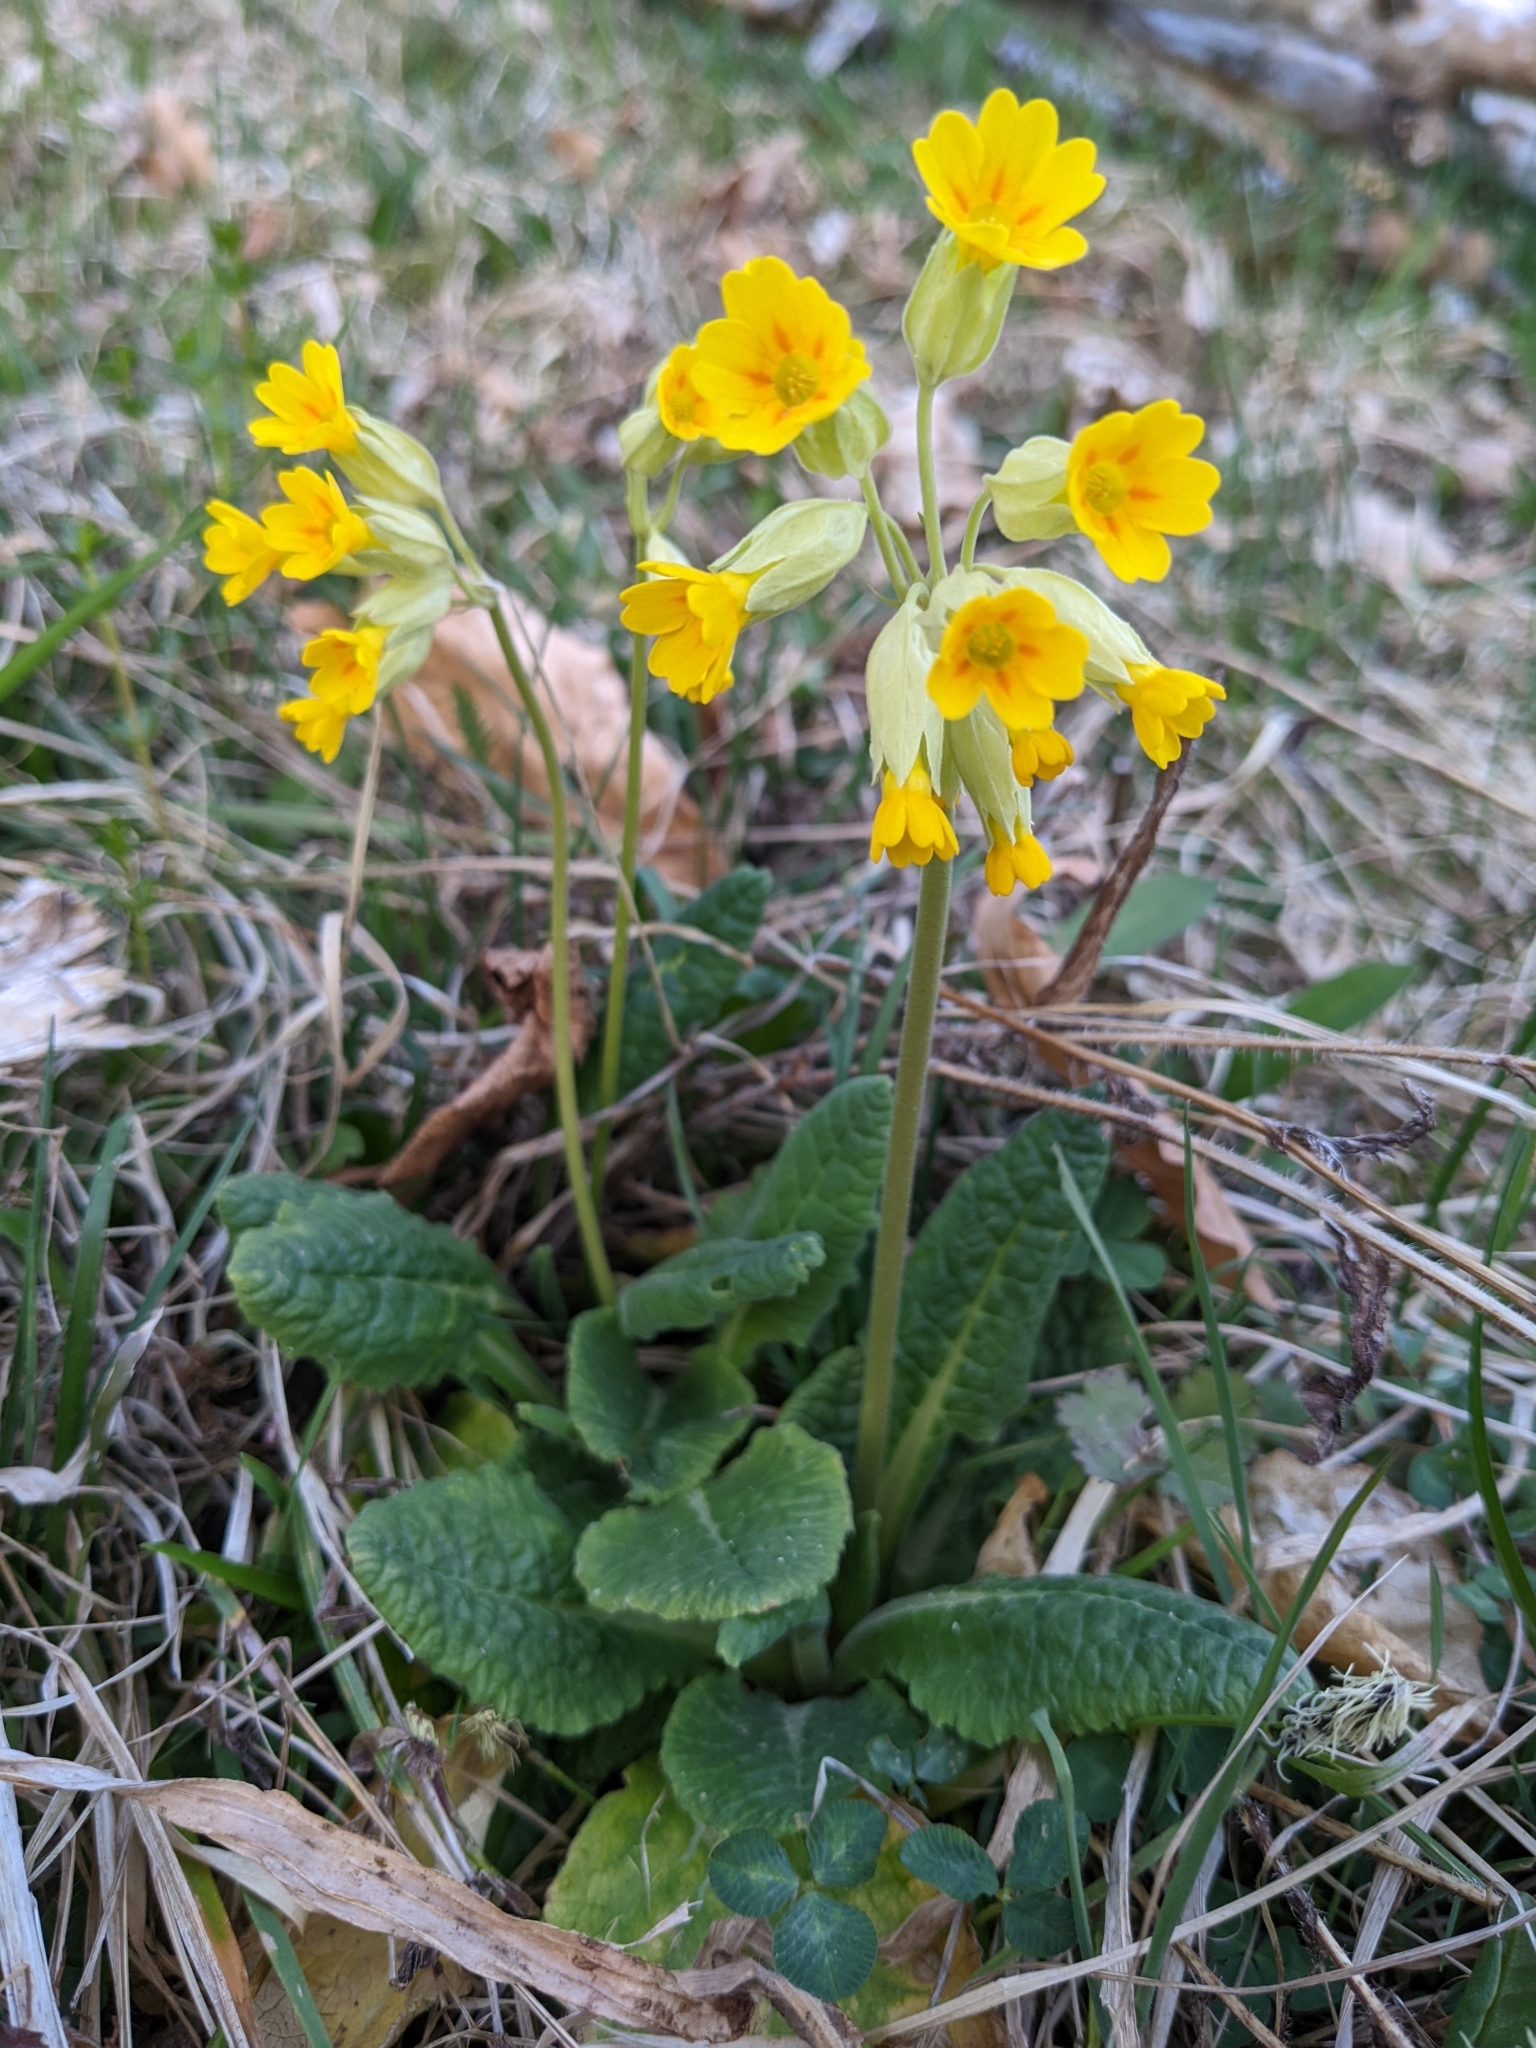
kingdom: Plantae
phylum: Tracheophyta
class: Magnoliopsida
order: Ericales
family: Primulaceae
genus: Primula
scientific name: Primula veris
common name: Cowslip
